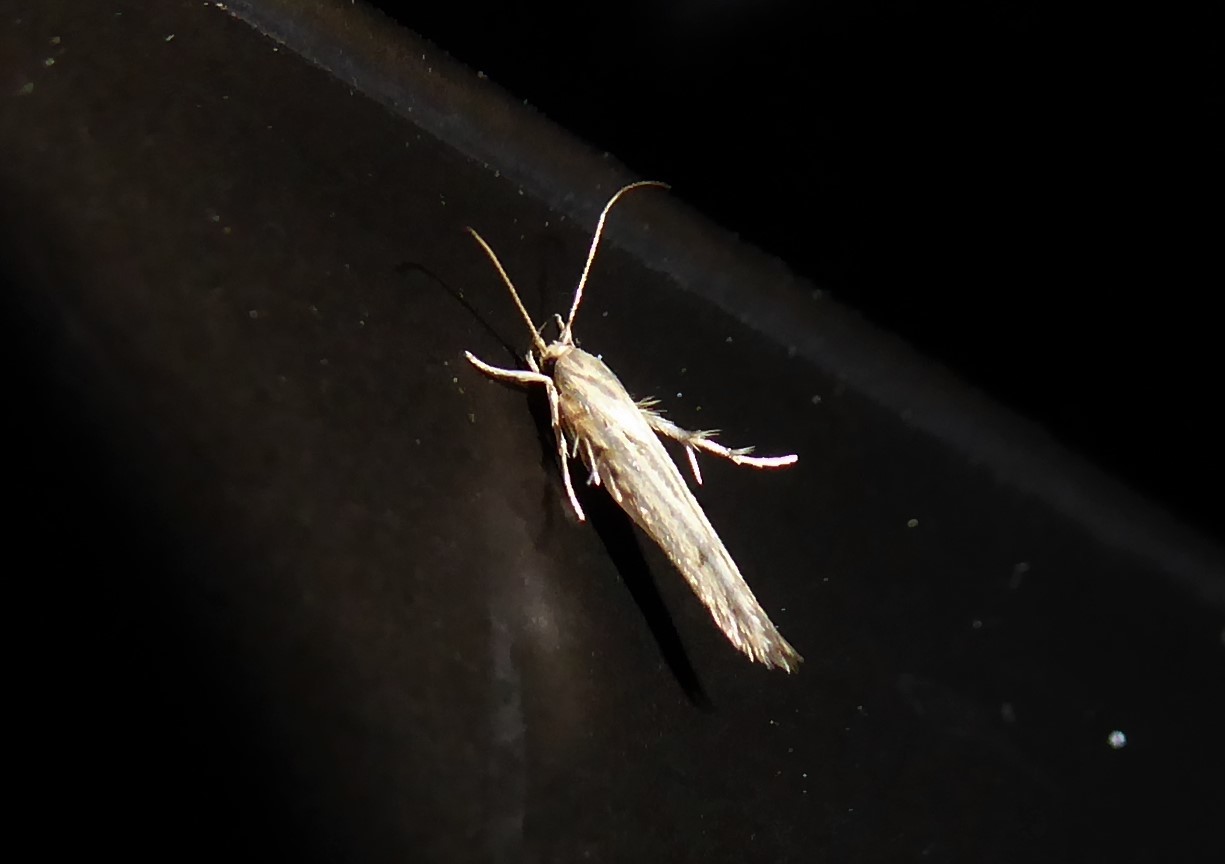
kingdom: Animalia
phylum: Arthropoda
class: Insecta
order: Lepidoptera
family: Stathmopodidae
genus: Stathmopoda
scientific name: Stathmopoda plumbiflua
